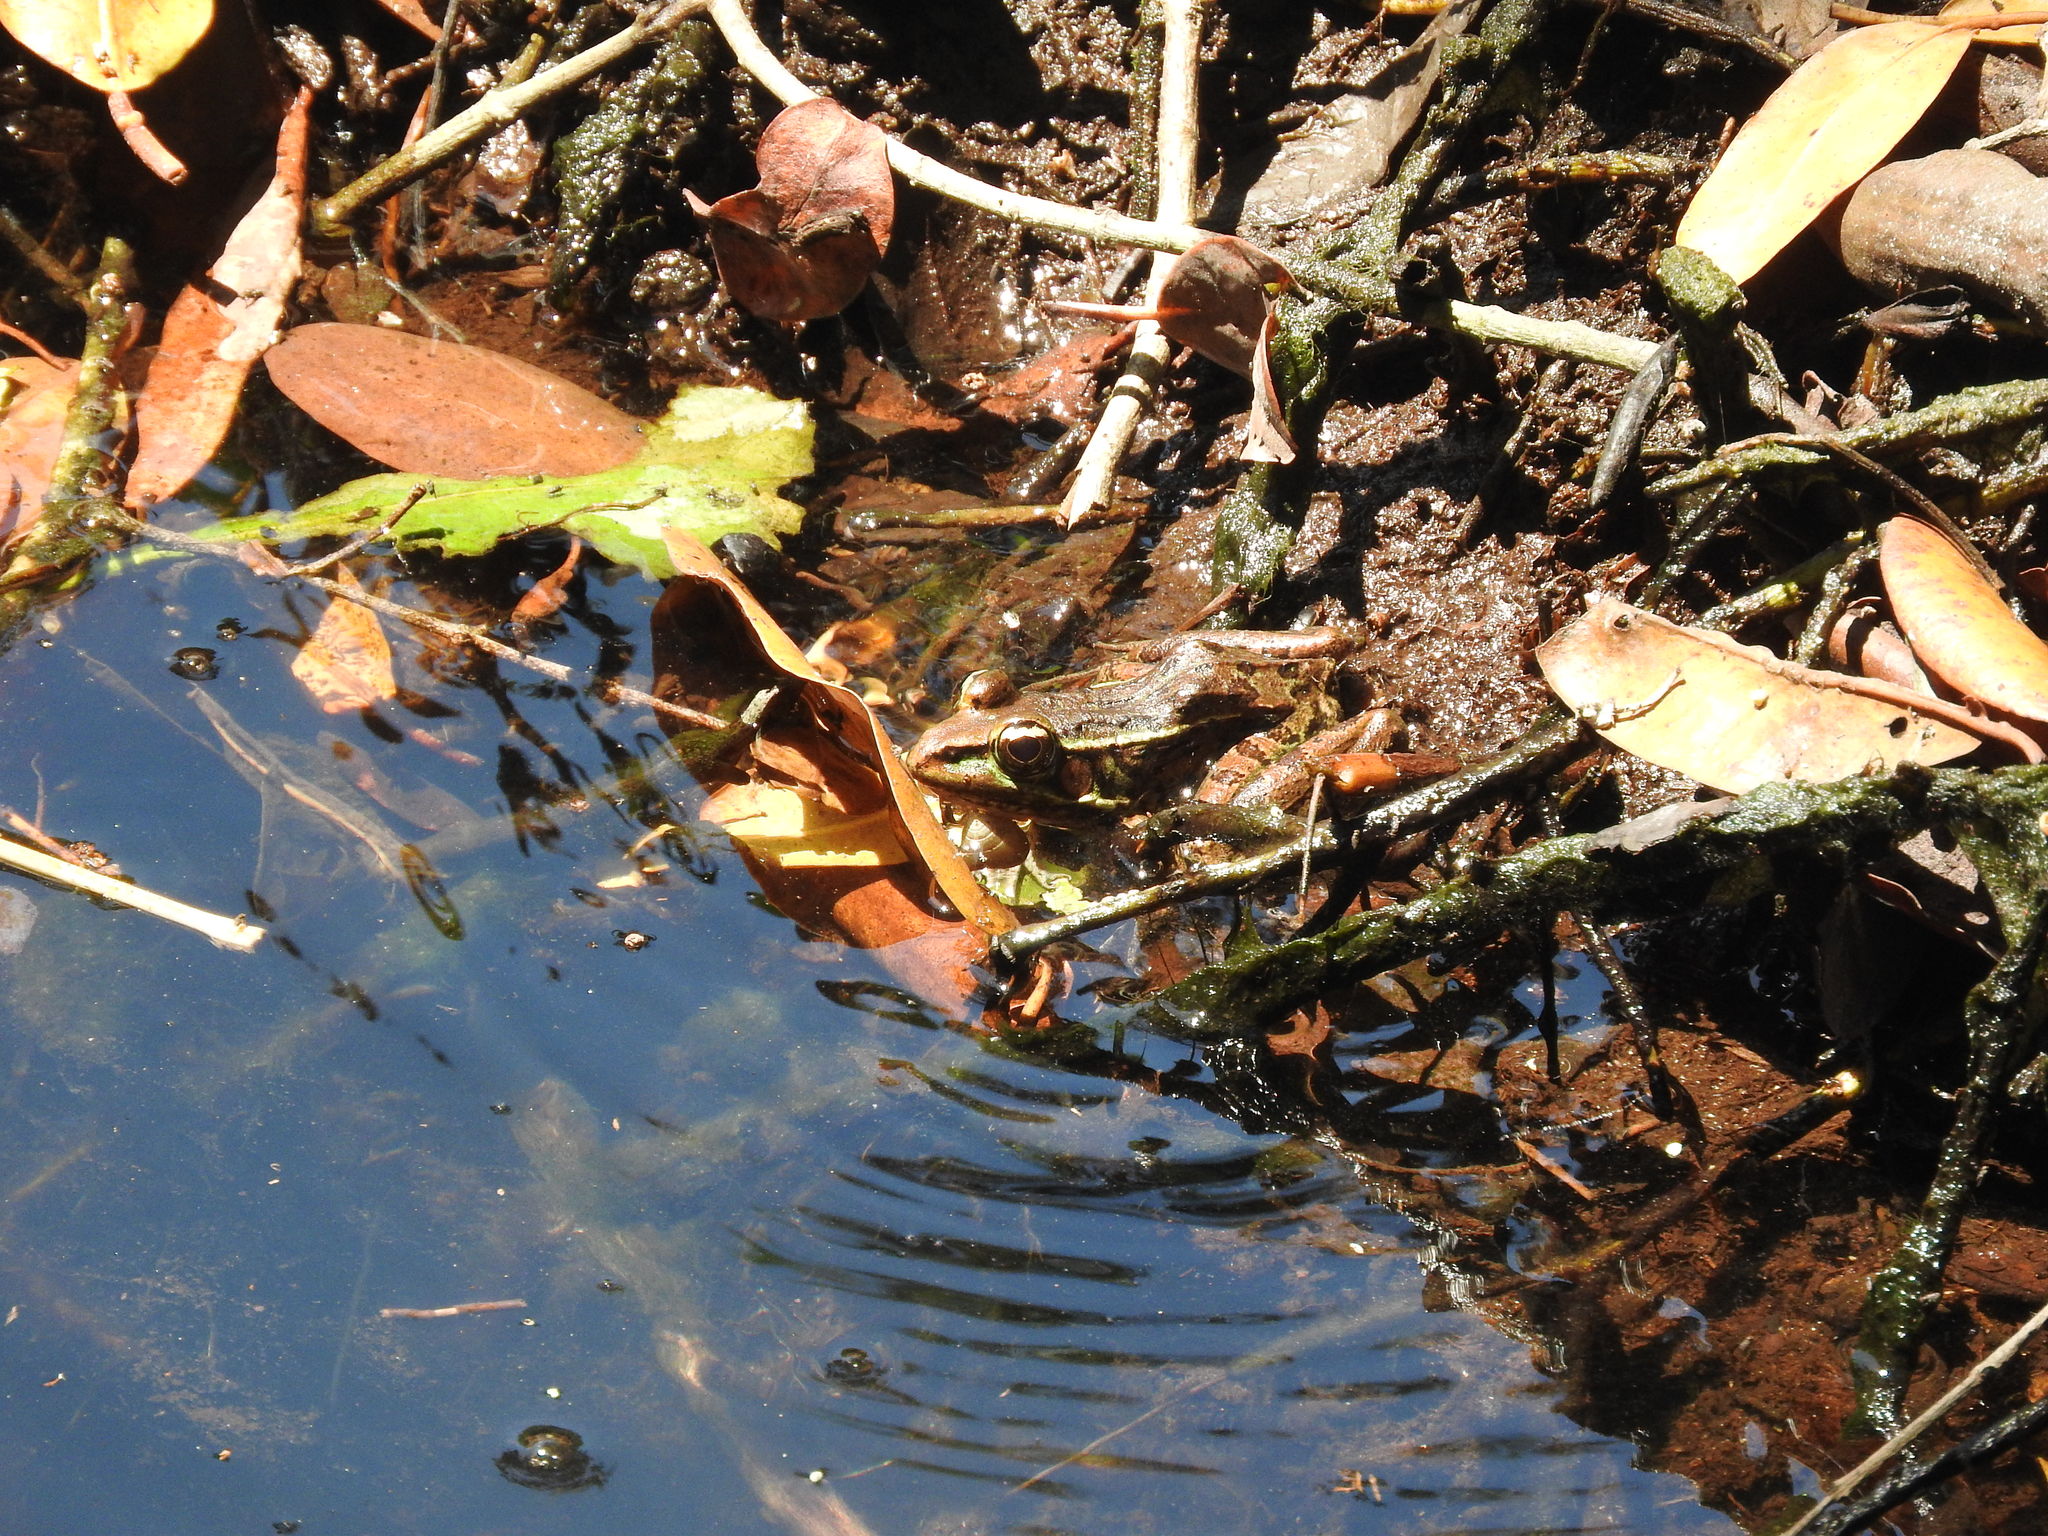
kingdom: Animalia
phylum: Chordata
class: Amphibia
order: Anura
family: Ranidae
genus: Lithobates
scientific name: Lithobates brownorum
